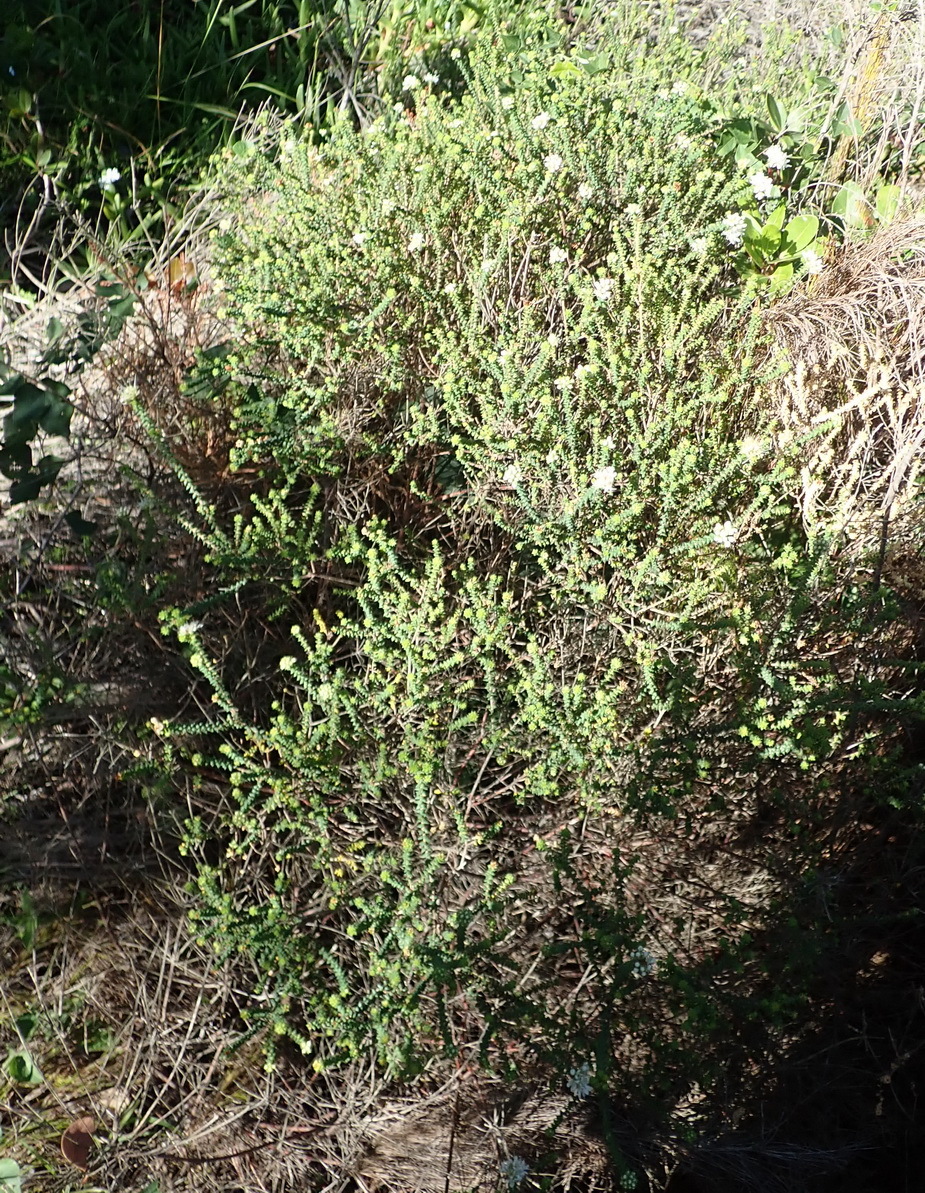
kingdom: Plantae
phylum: Tracheophyta
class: Magnoliopsida
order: Sapindales
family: Rutaceae
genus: Agathosma
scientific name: Agathosma apiculata
